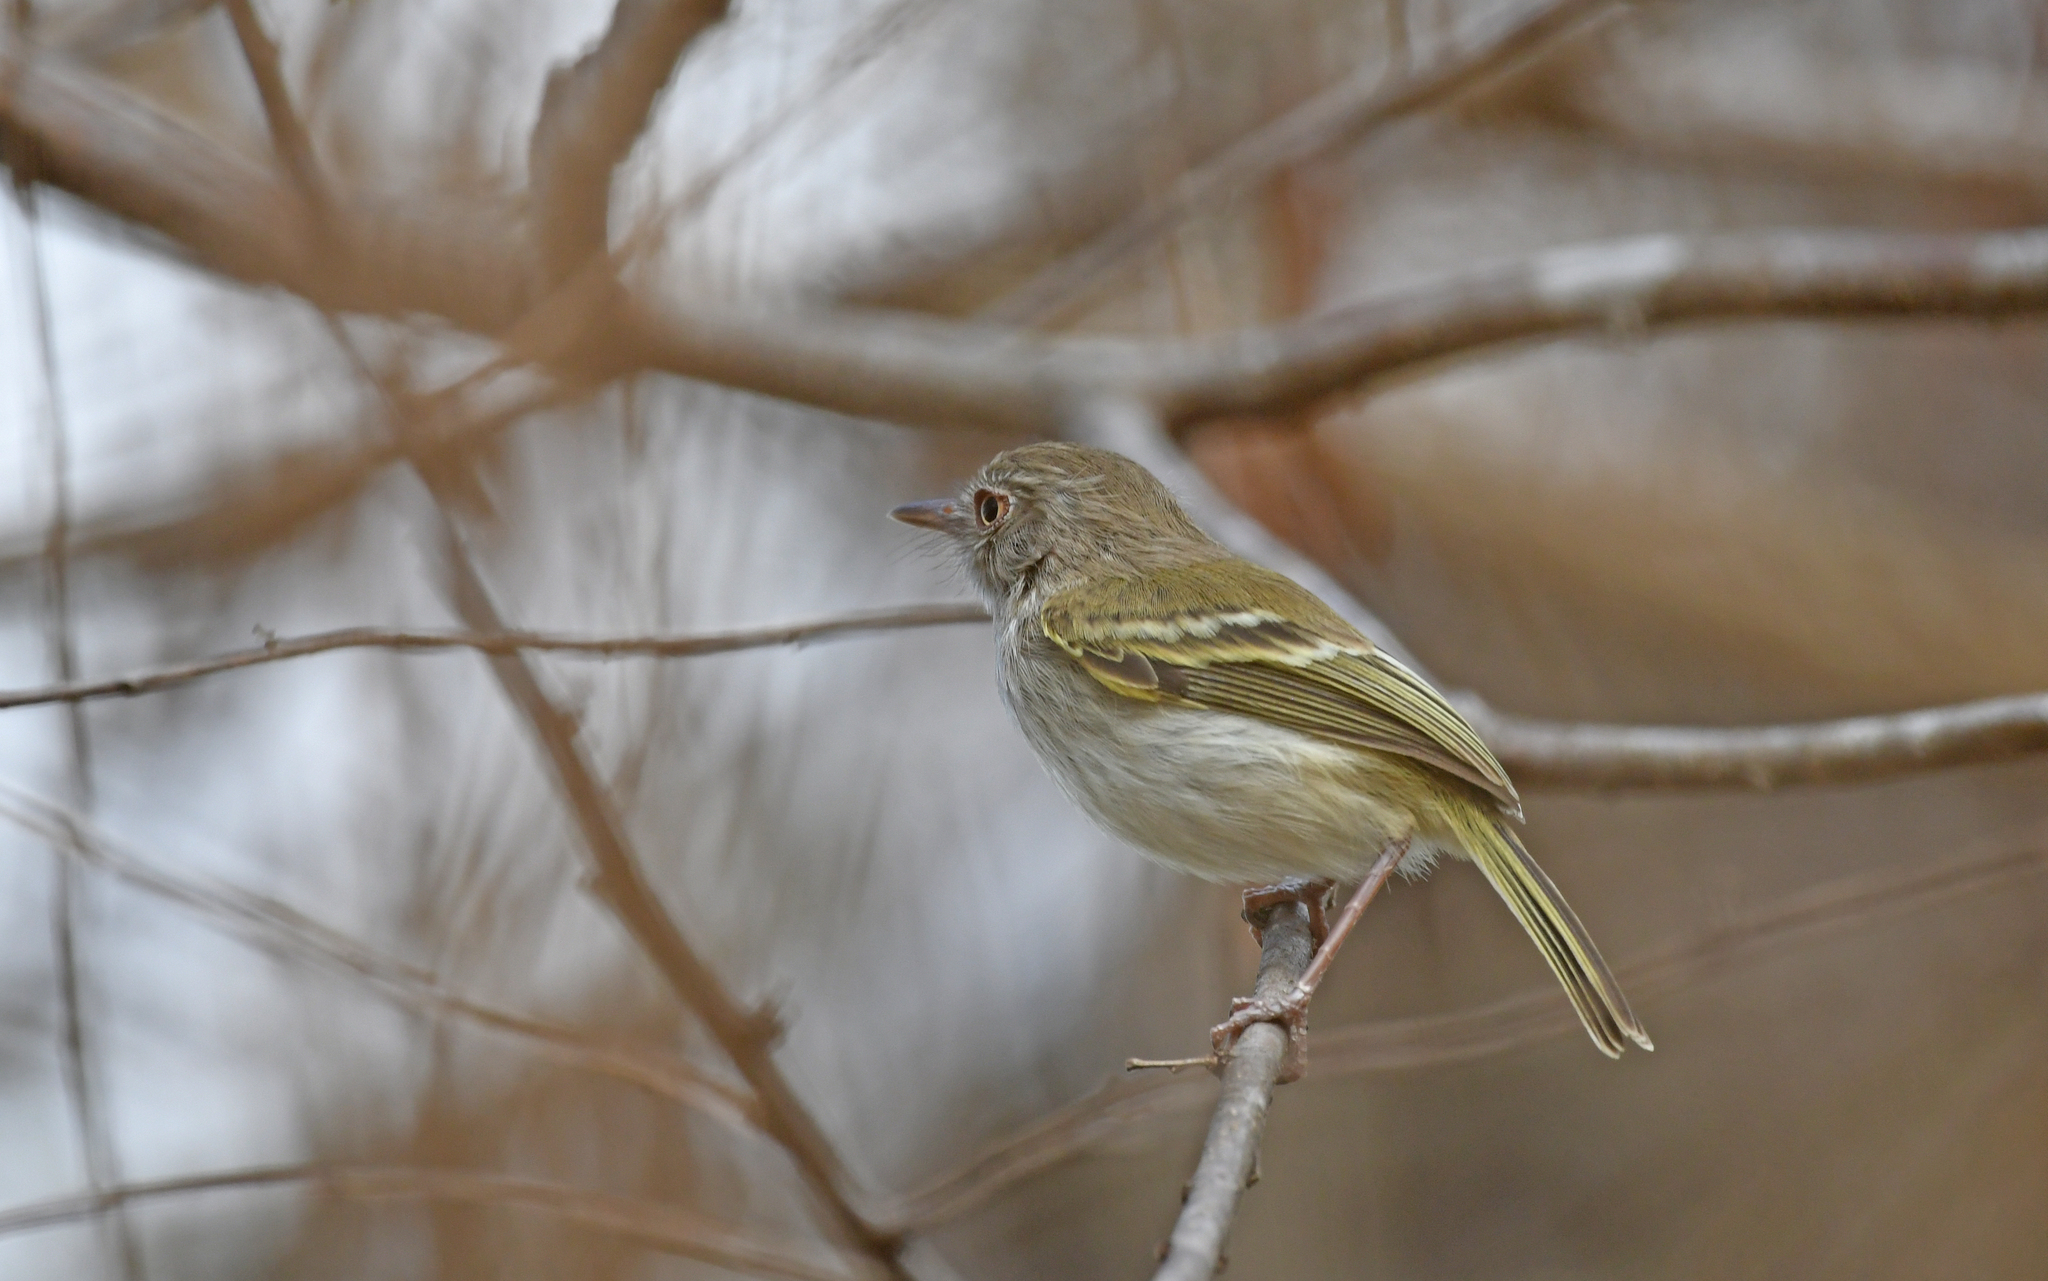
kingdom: Animalia
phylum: Chordata
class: Aves
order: Passeriformes
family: Tyrannidae
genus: Hemitriccus
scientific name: Hemitriccus margaritaceiventer
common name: Pearly-vented tody-tyrant
